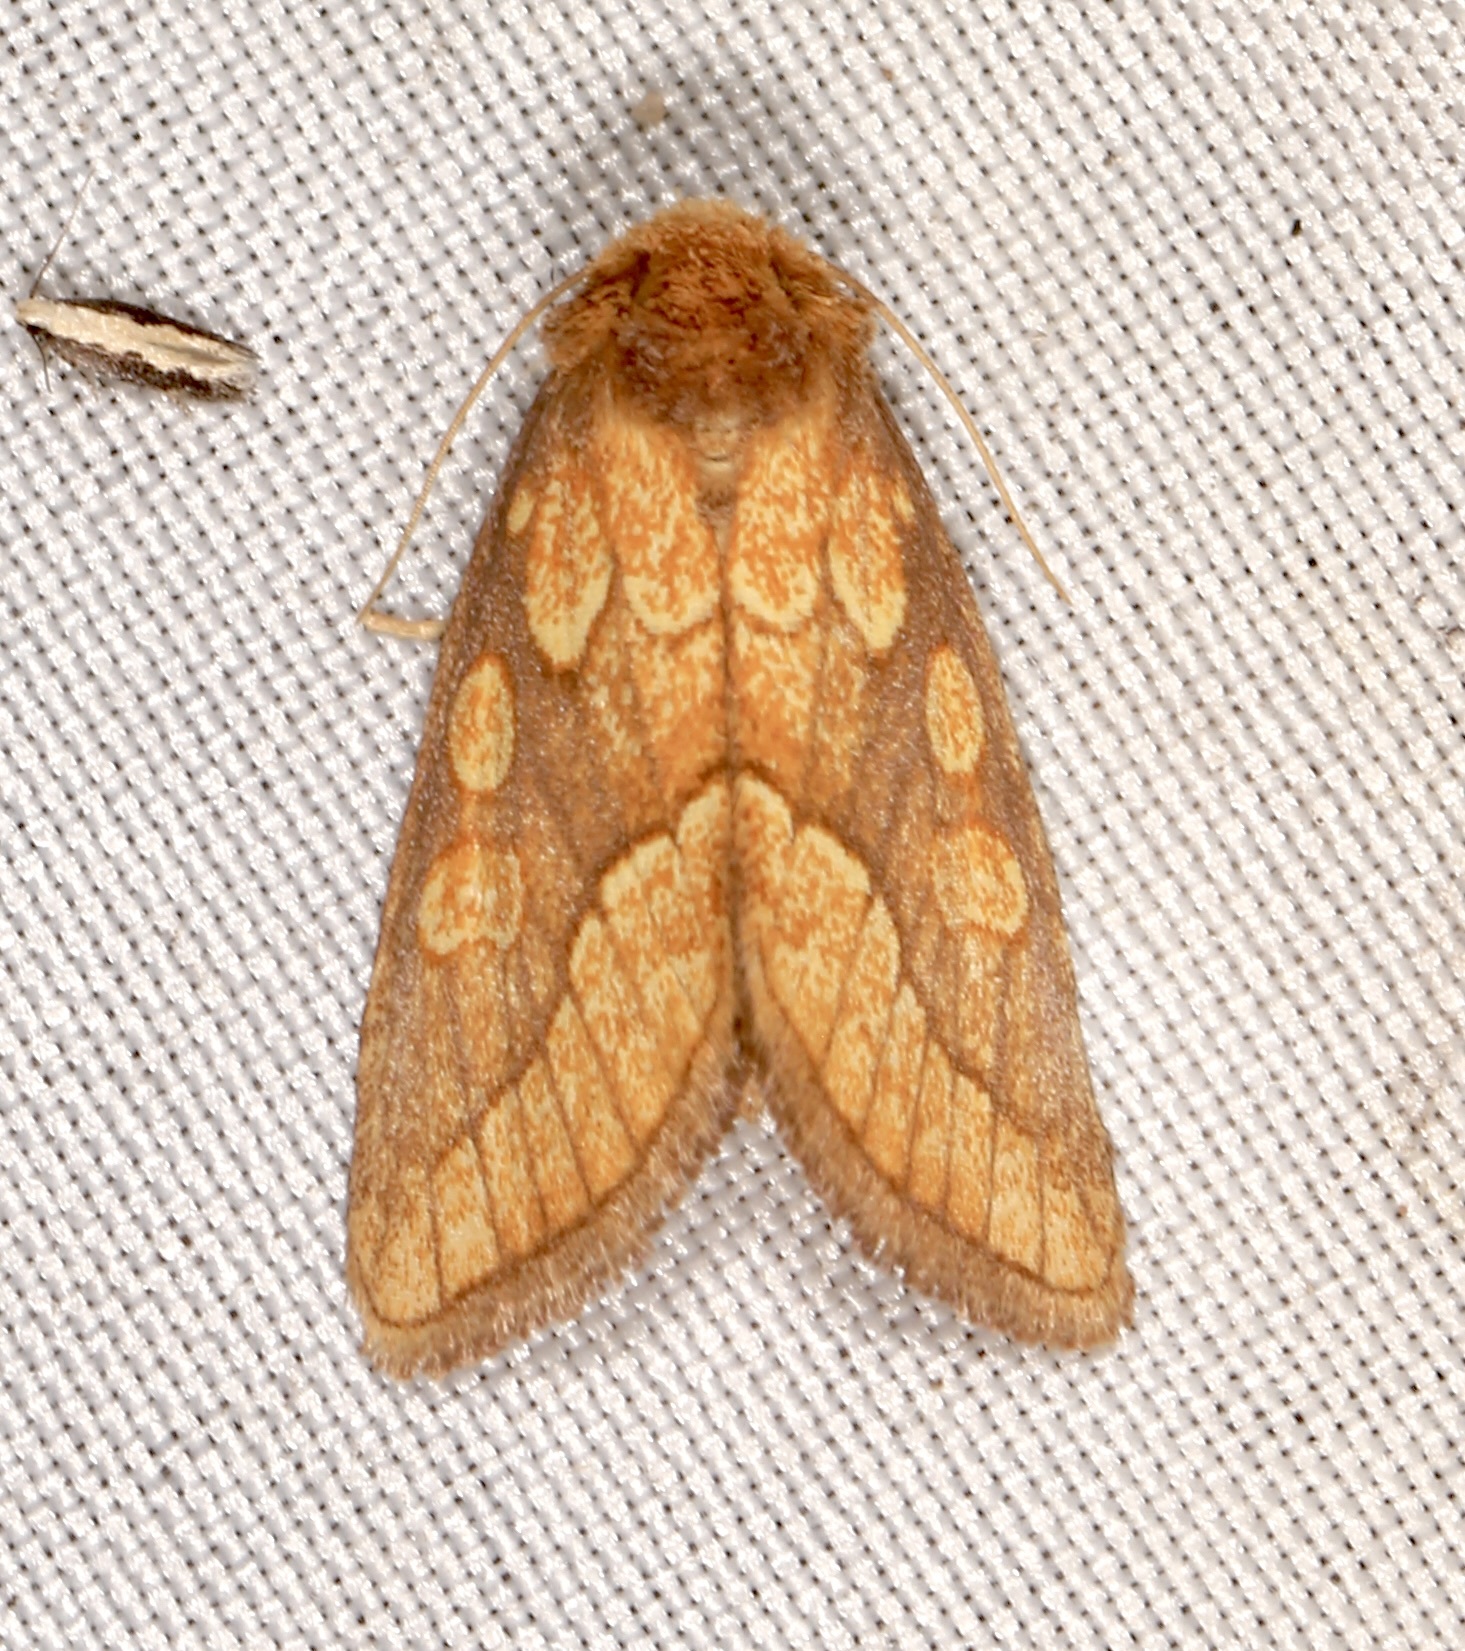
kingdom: Animalia
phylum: Arthropoda
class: Insecta
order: Lepidoptera
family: Noctuidae
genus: Nocloa
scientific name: Nocloa alcandra
